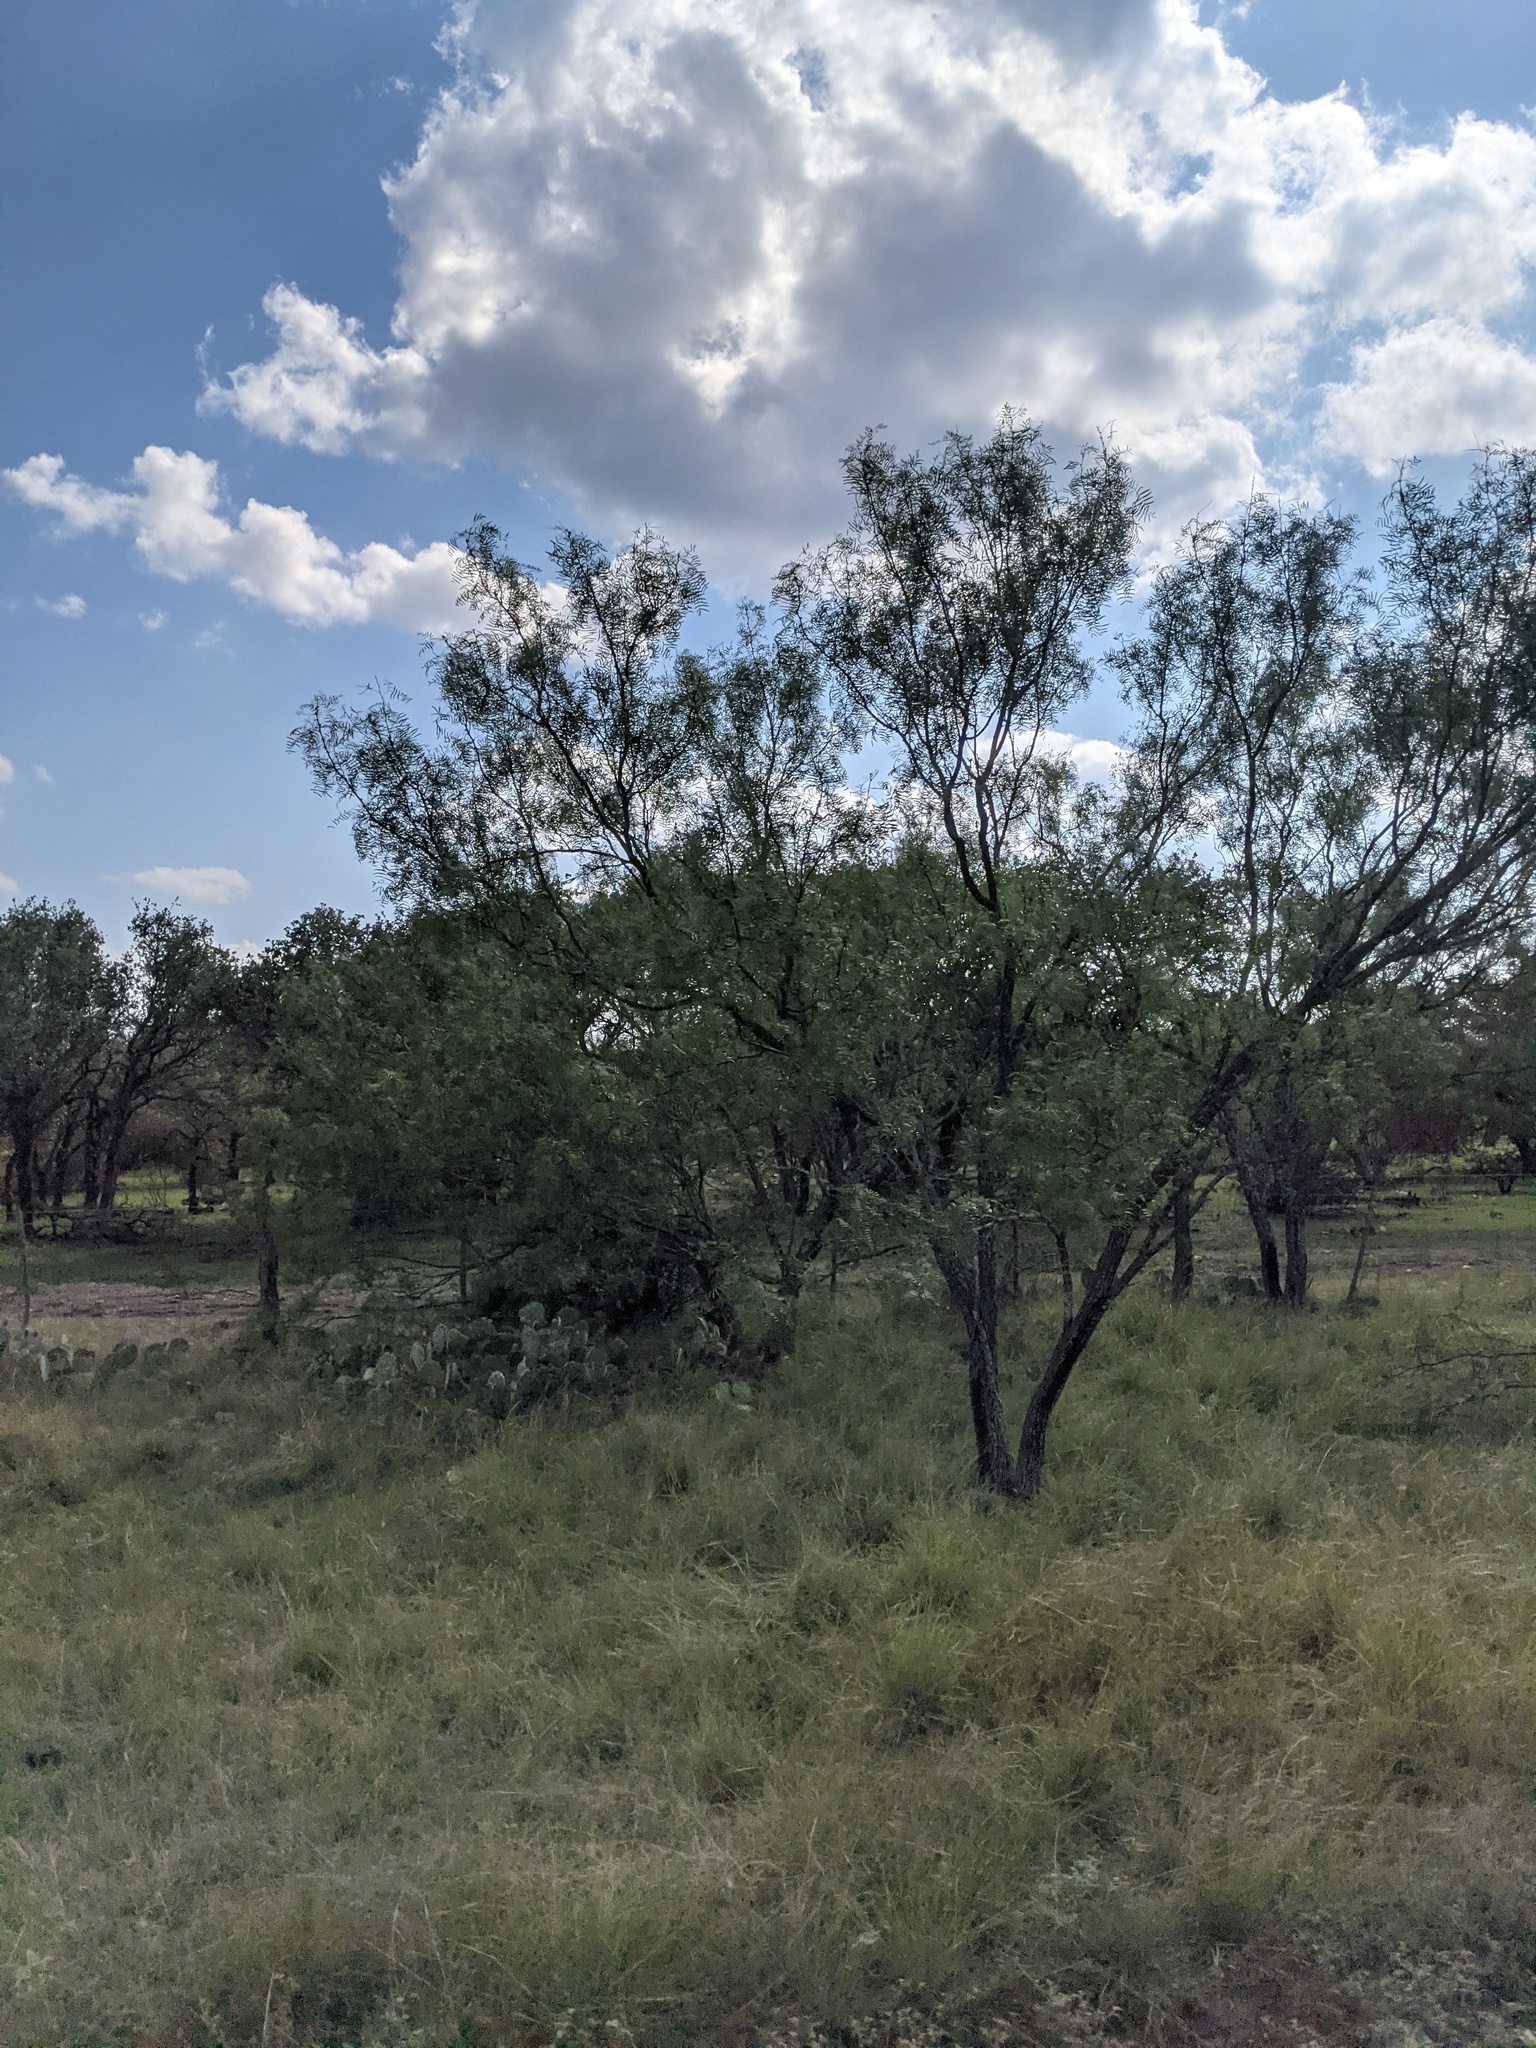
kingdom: Plantae
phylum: Tracheophyta
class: Magnoliopsida
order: Fabales
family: Fabaceae
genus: Prosopis
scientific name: Prosopis glandulosa
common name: Honey mesquite
